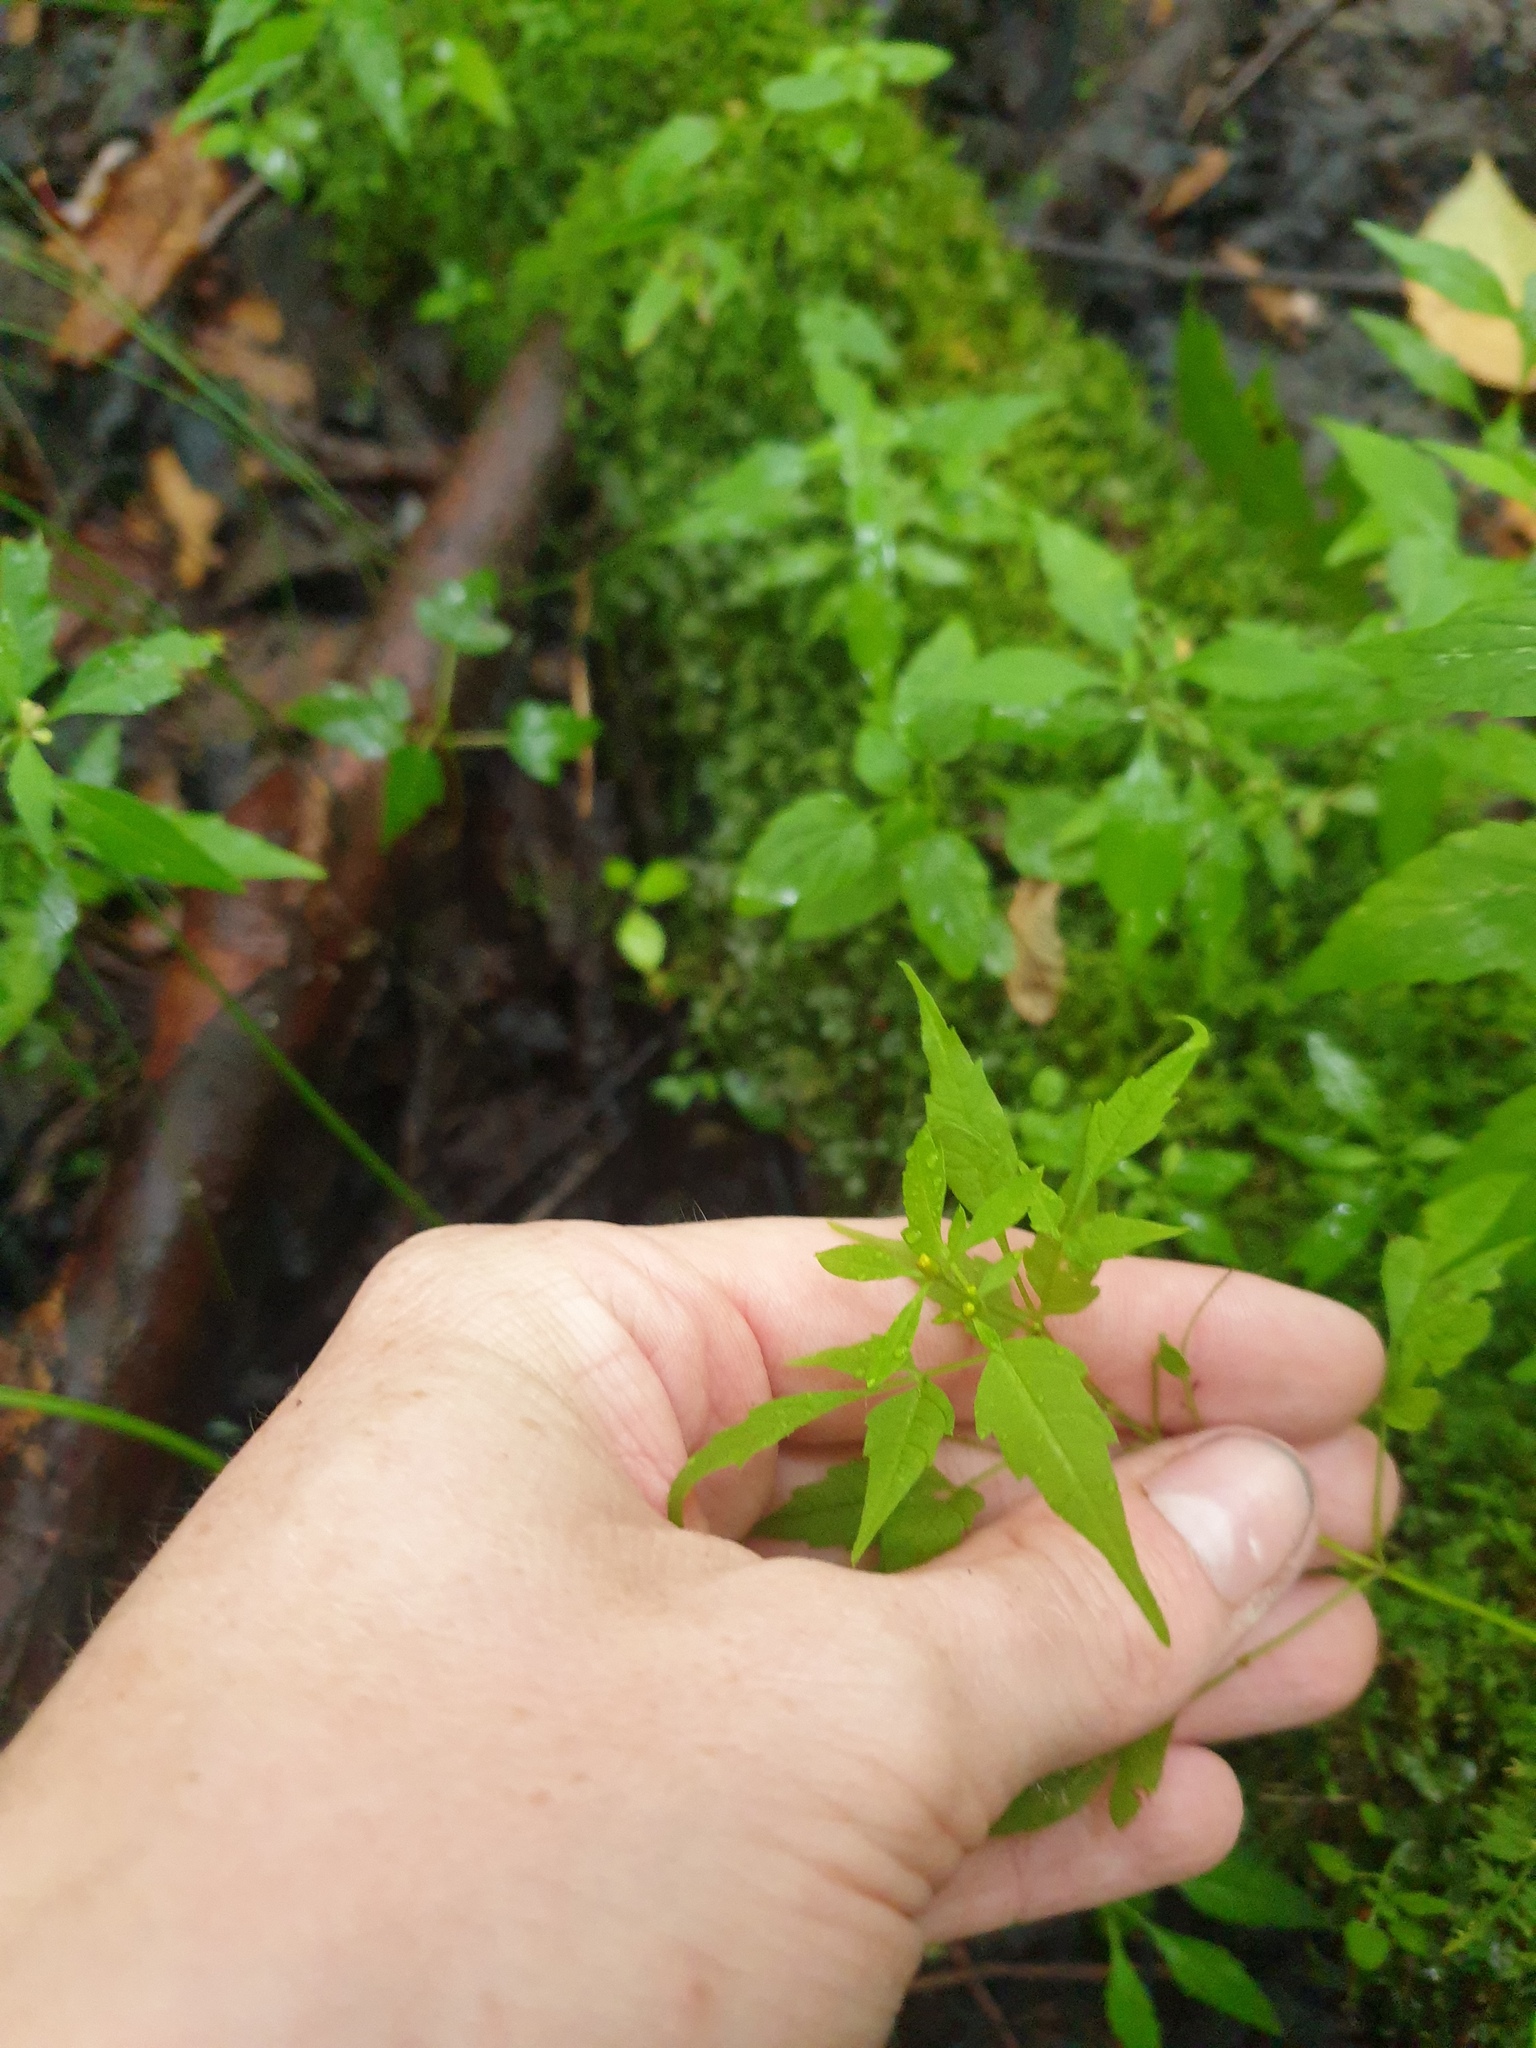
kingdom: Plantae
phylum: Tracheophyta
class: Magnoliopsida
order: Asterales
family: Asteraceae
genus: Bidens
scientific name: Bidens discoidea
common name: Discoide beggarticks
